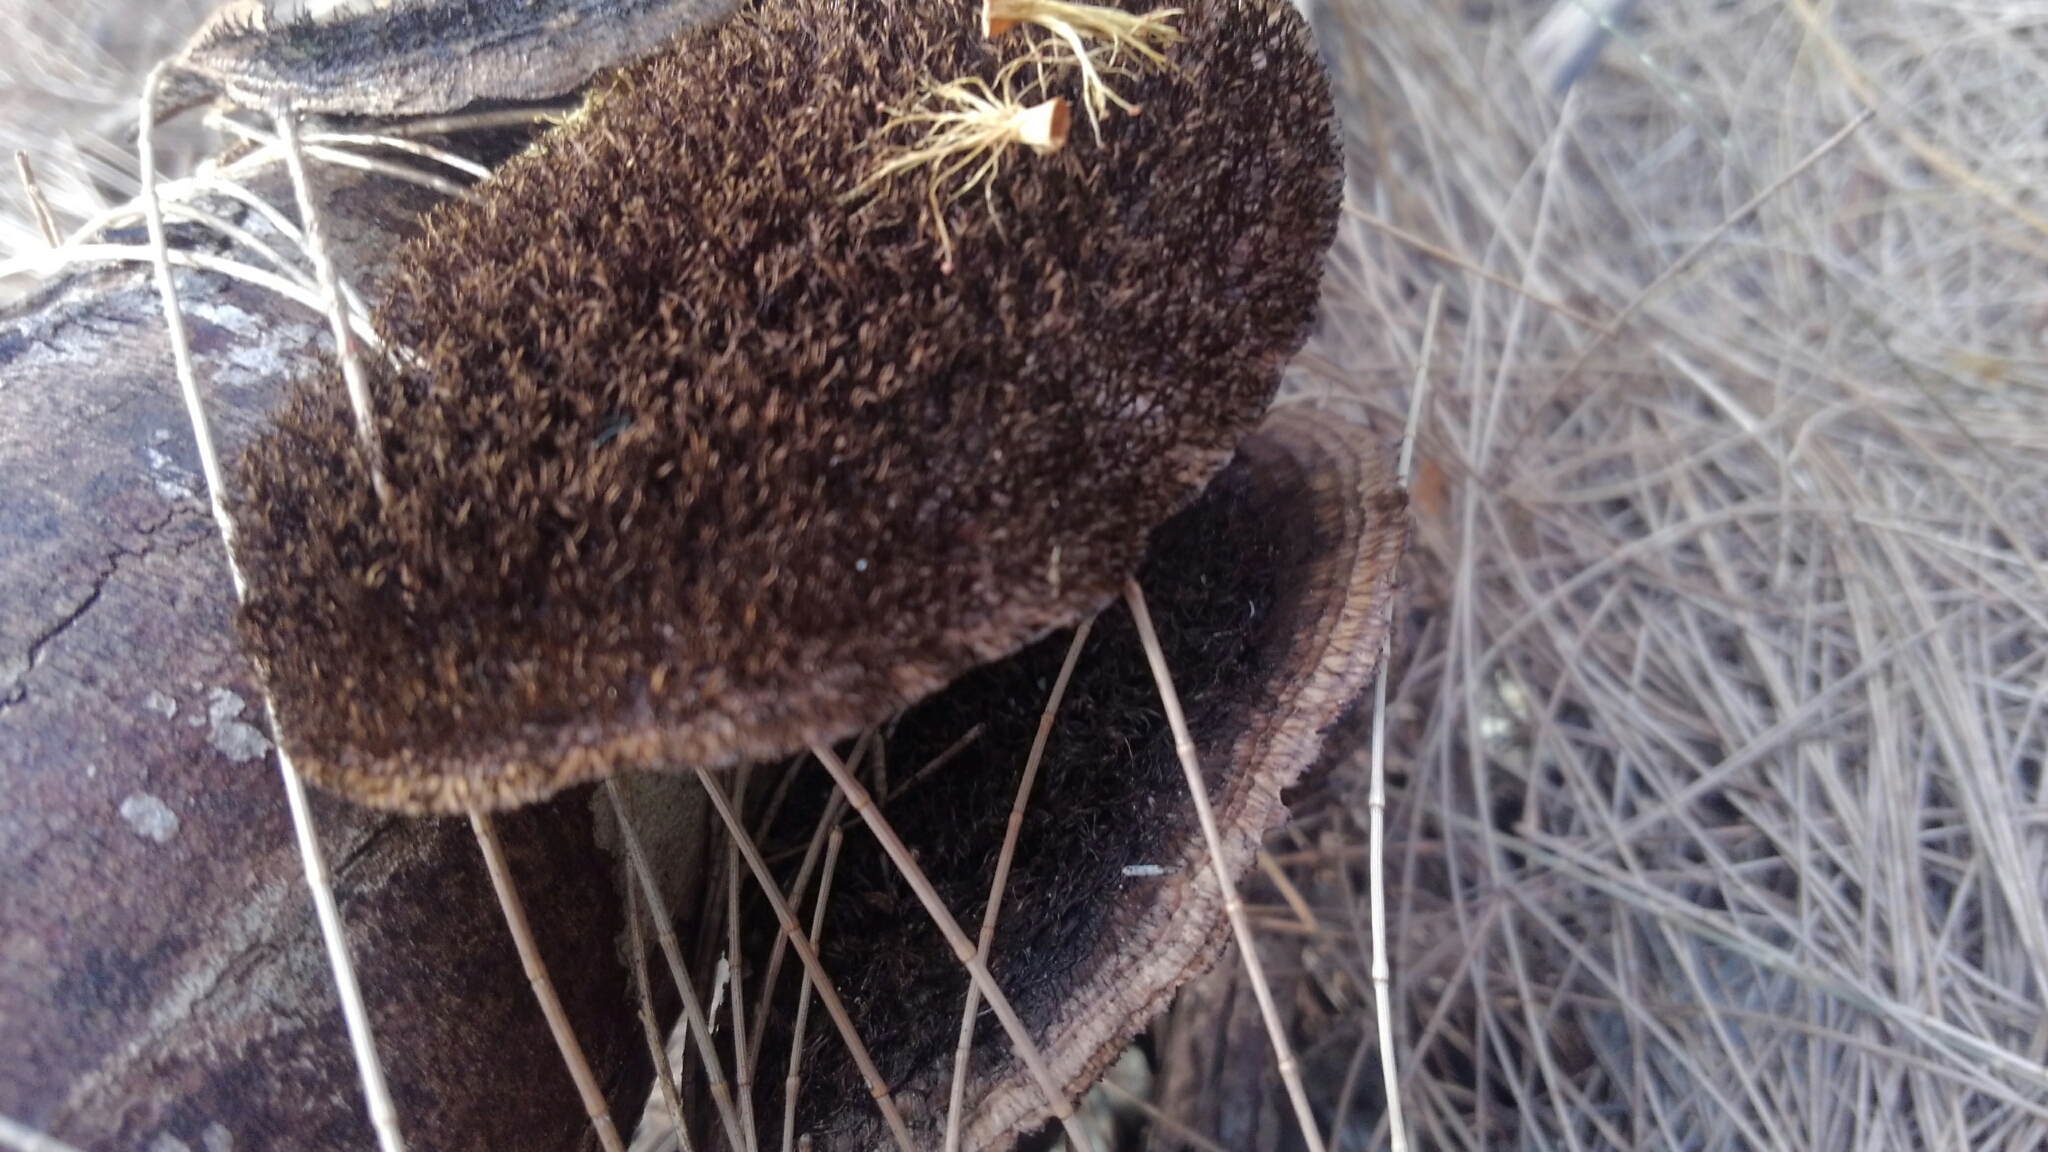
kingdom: Fungi
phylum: Basidiomycota
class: Agaricomycetes
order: Polyporales
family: Cerrenaceae
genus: Cerrena
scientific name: Cerrena hydnoides
